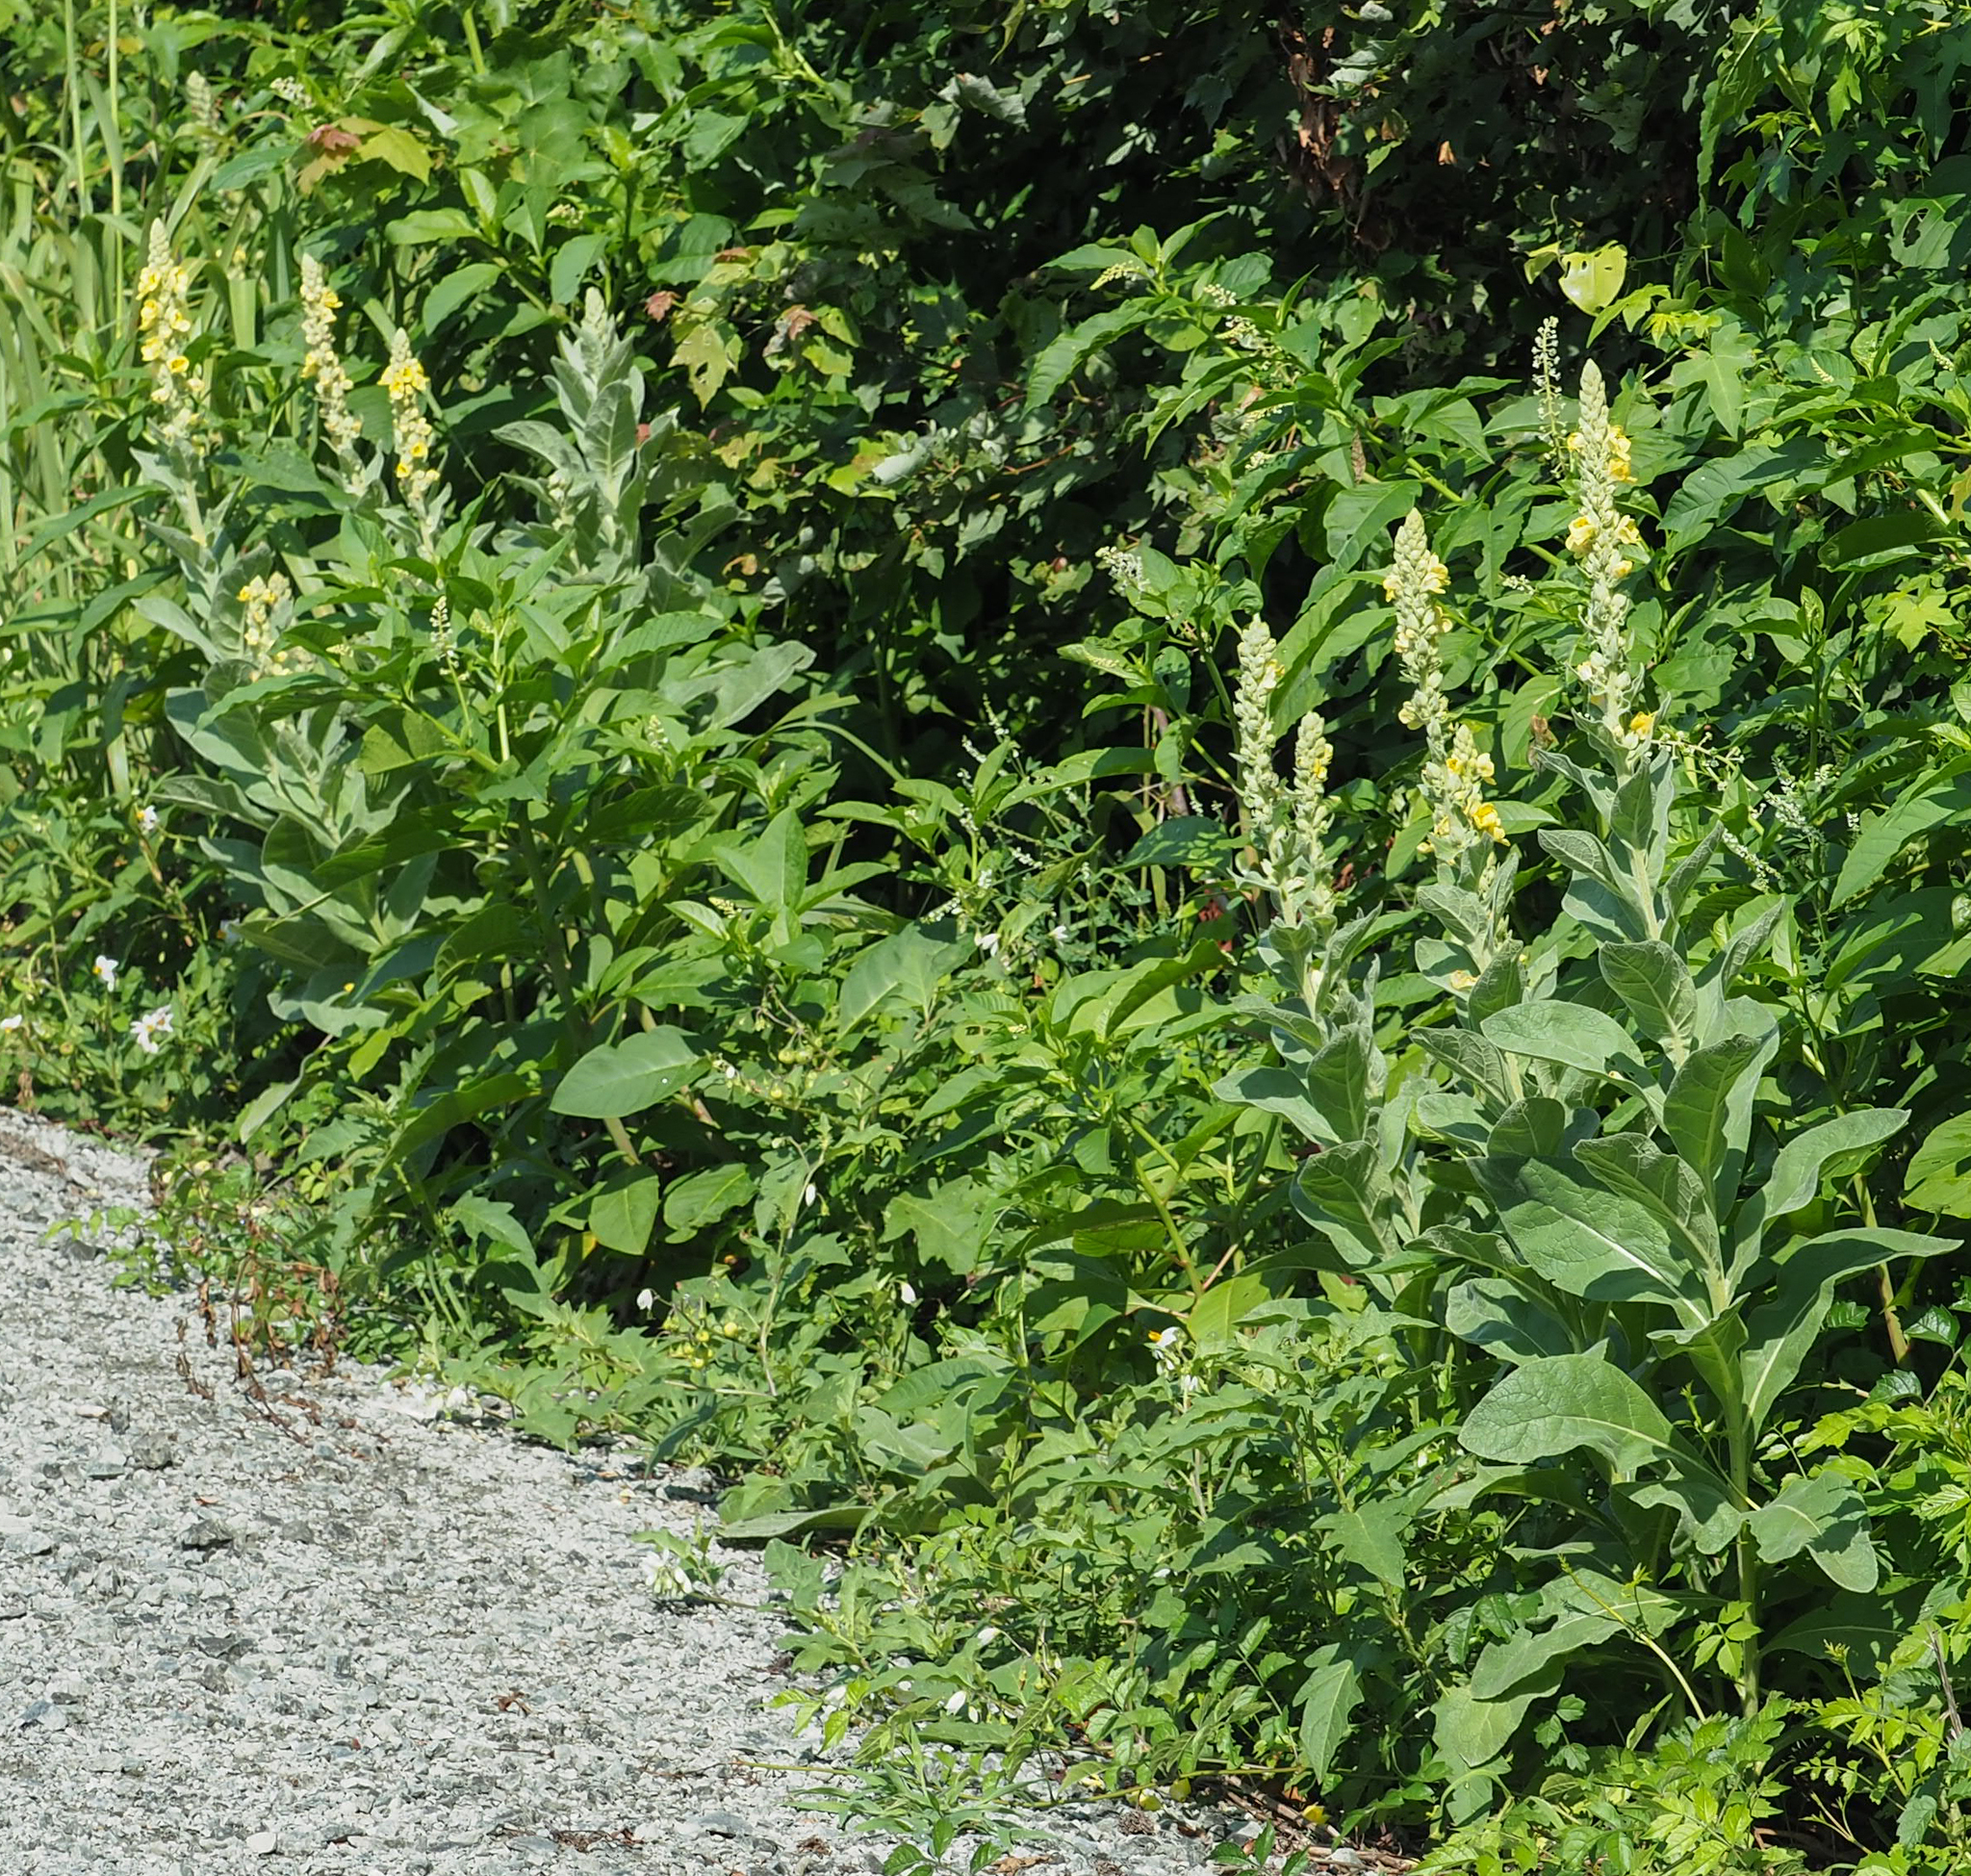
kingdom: Plantae
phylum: Tracheophyta
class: Magnoliopsida
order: Lamiales
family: Scrophulariaceae
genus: Verbascum
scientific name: Verbascum thapsus
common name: Common mullein
